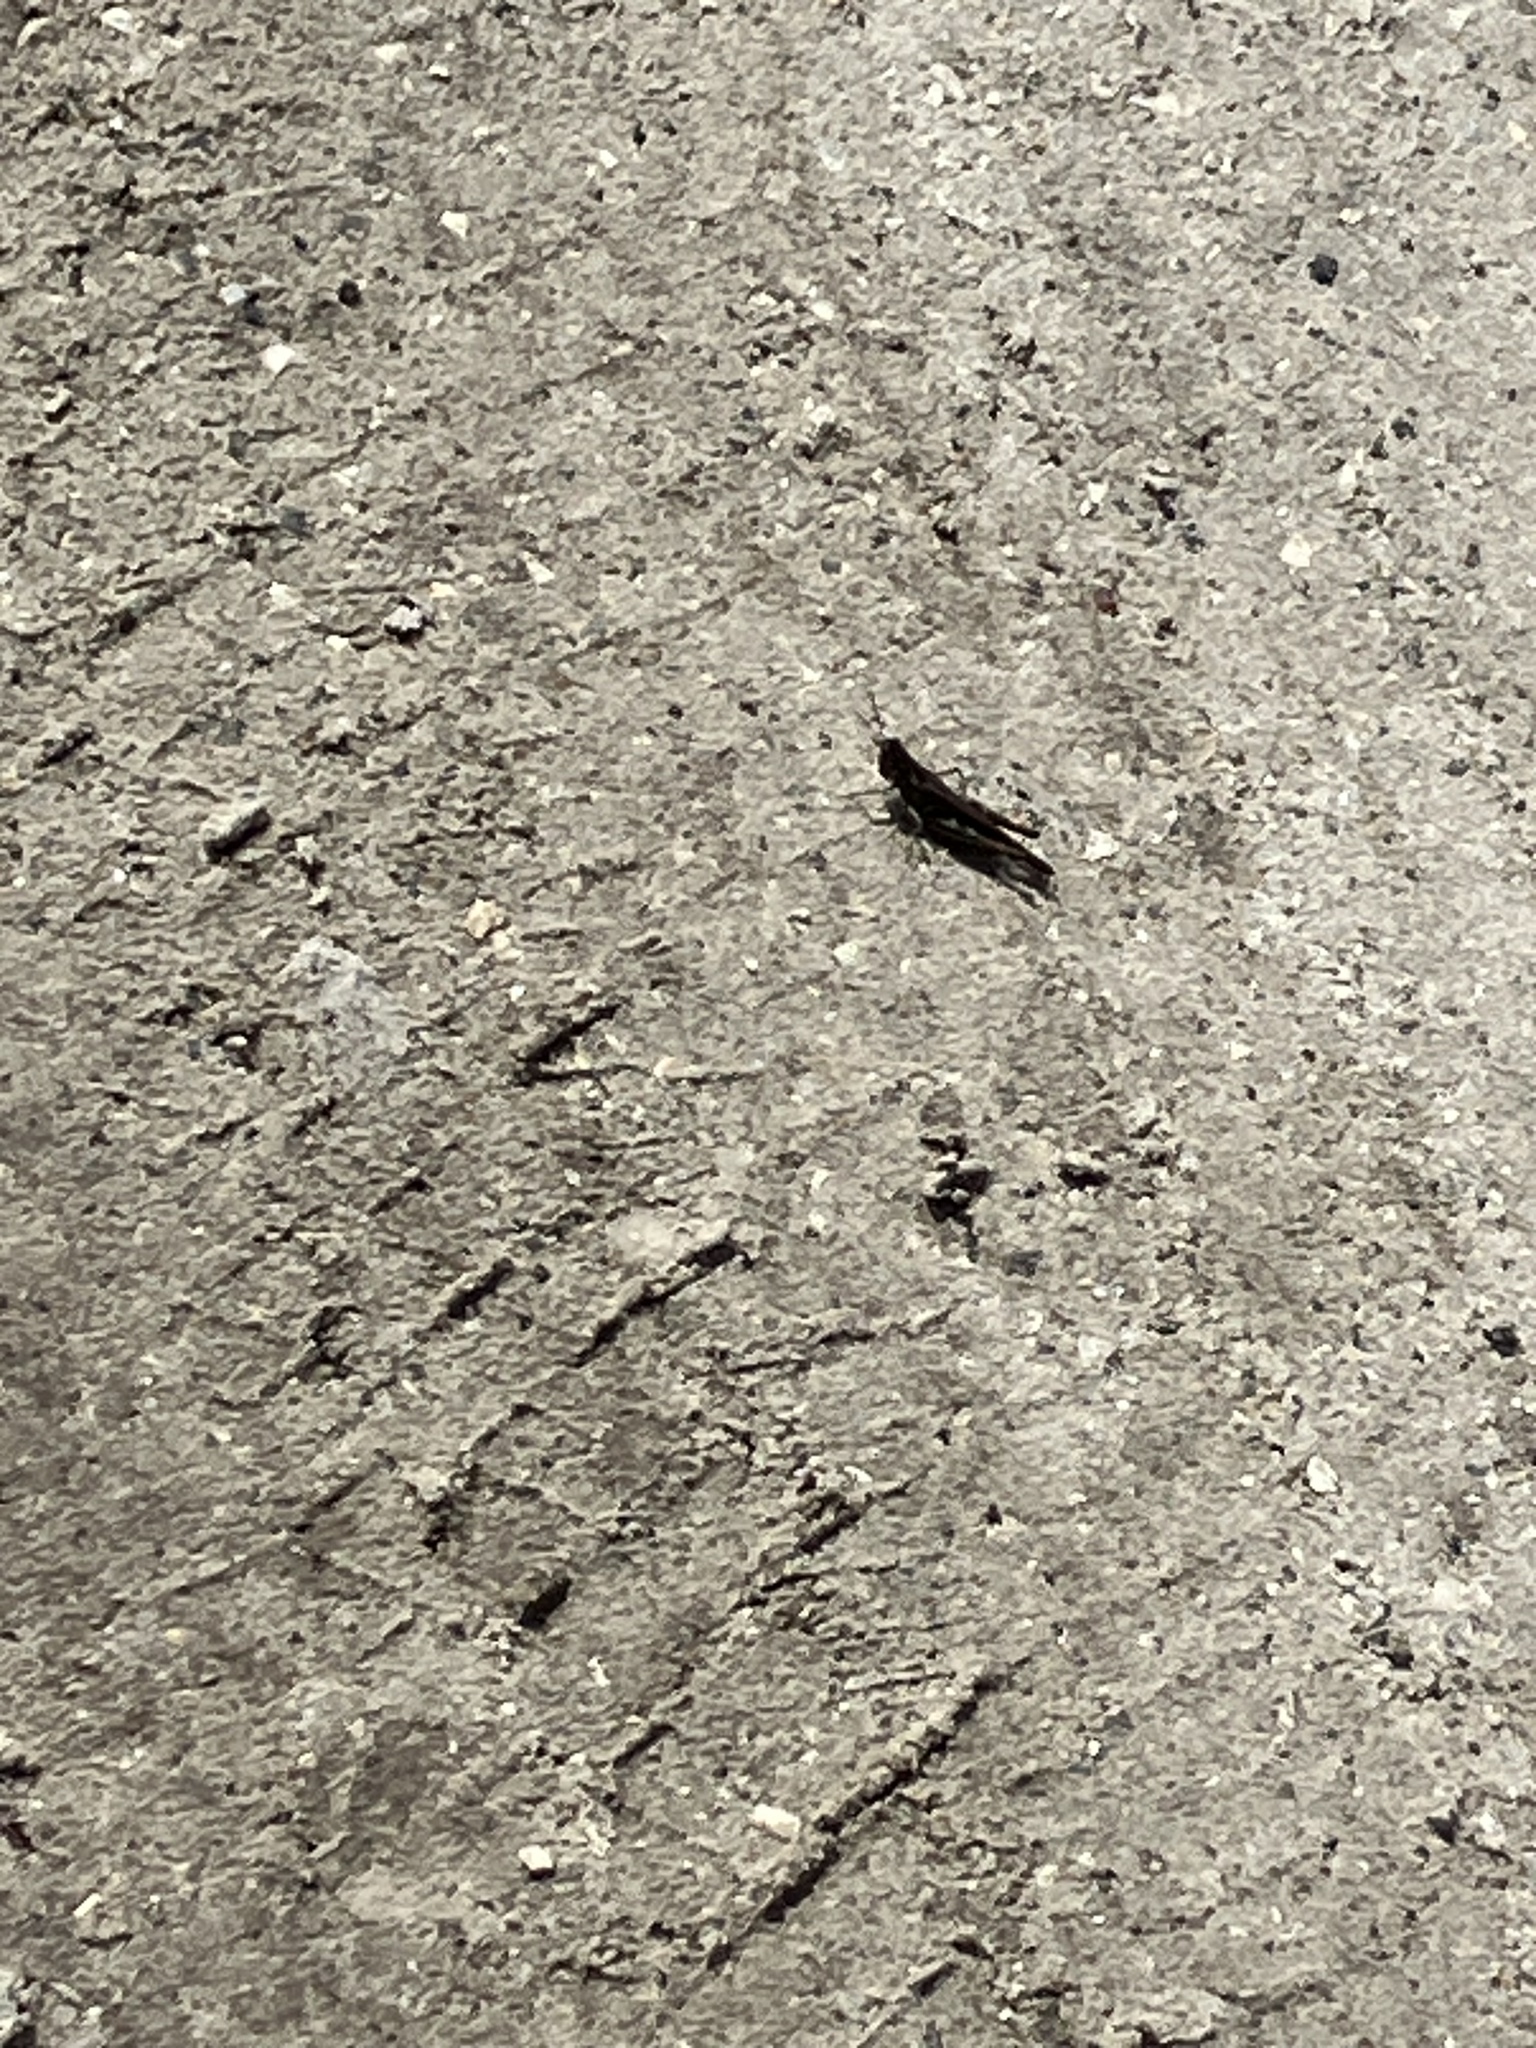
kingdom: Animalia
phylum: Arthropoda
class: Insecta
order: Orthoptera
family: Acrididae
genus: Orphulella
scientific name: Orphulella pelidna
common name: Spotted-wing grasshopper
